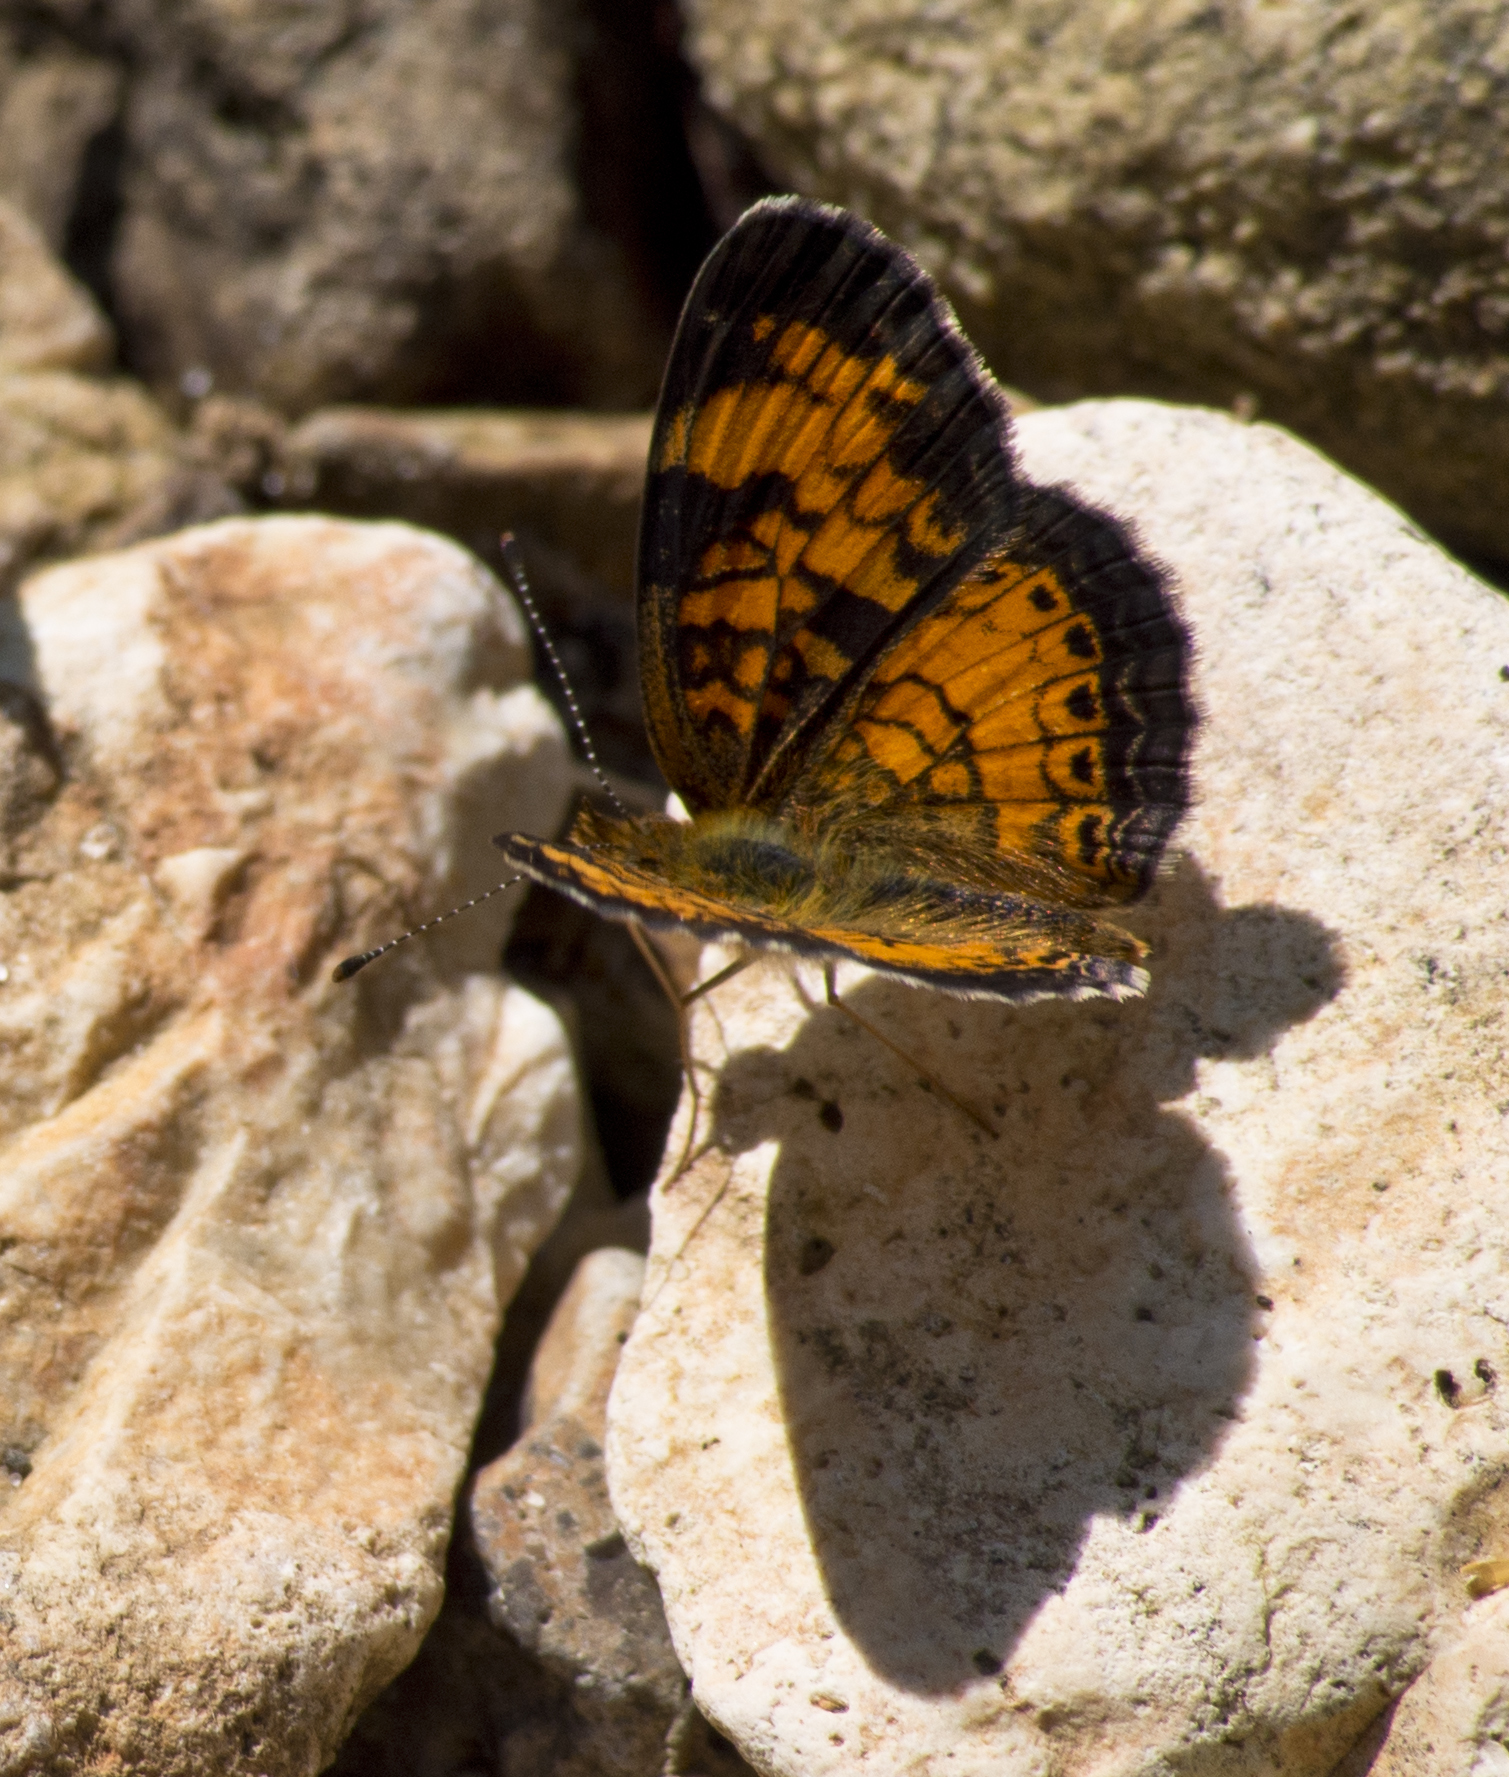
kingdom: Animalia
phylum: Arthropoda
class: Insecta
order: Lepidoptera
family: Nymphalidae
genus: Phyciodes
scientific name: Phyciodes tharos
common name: Pearl crescent
